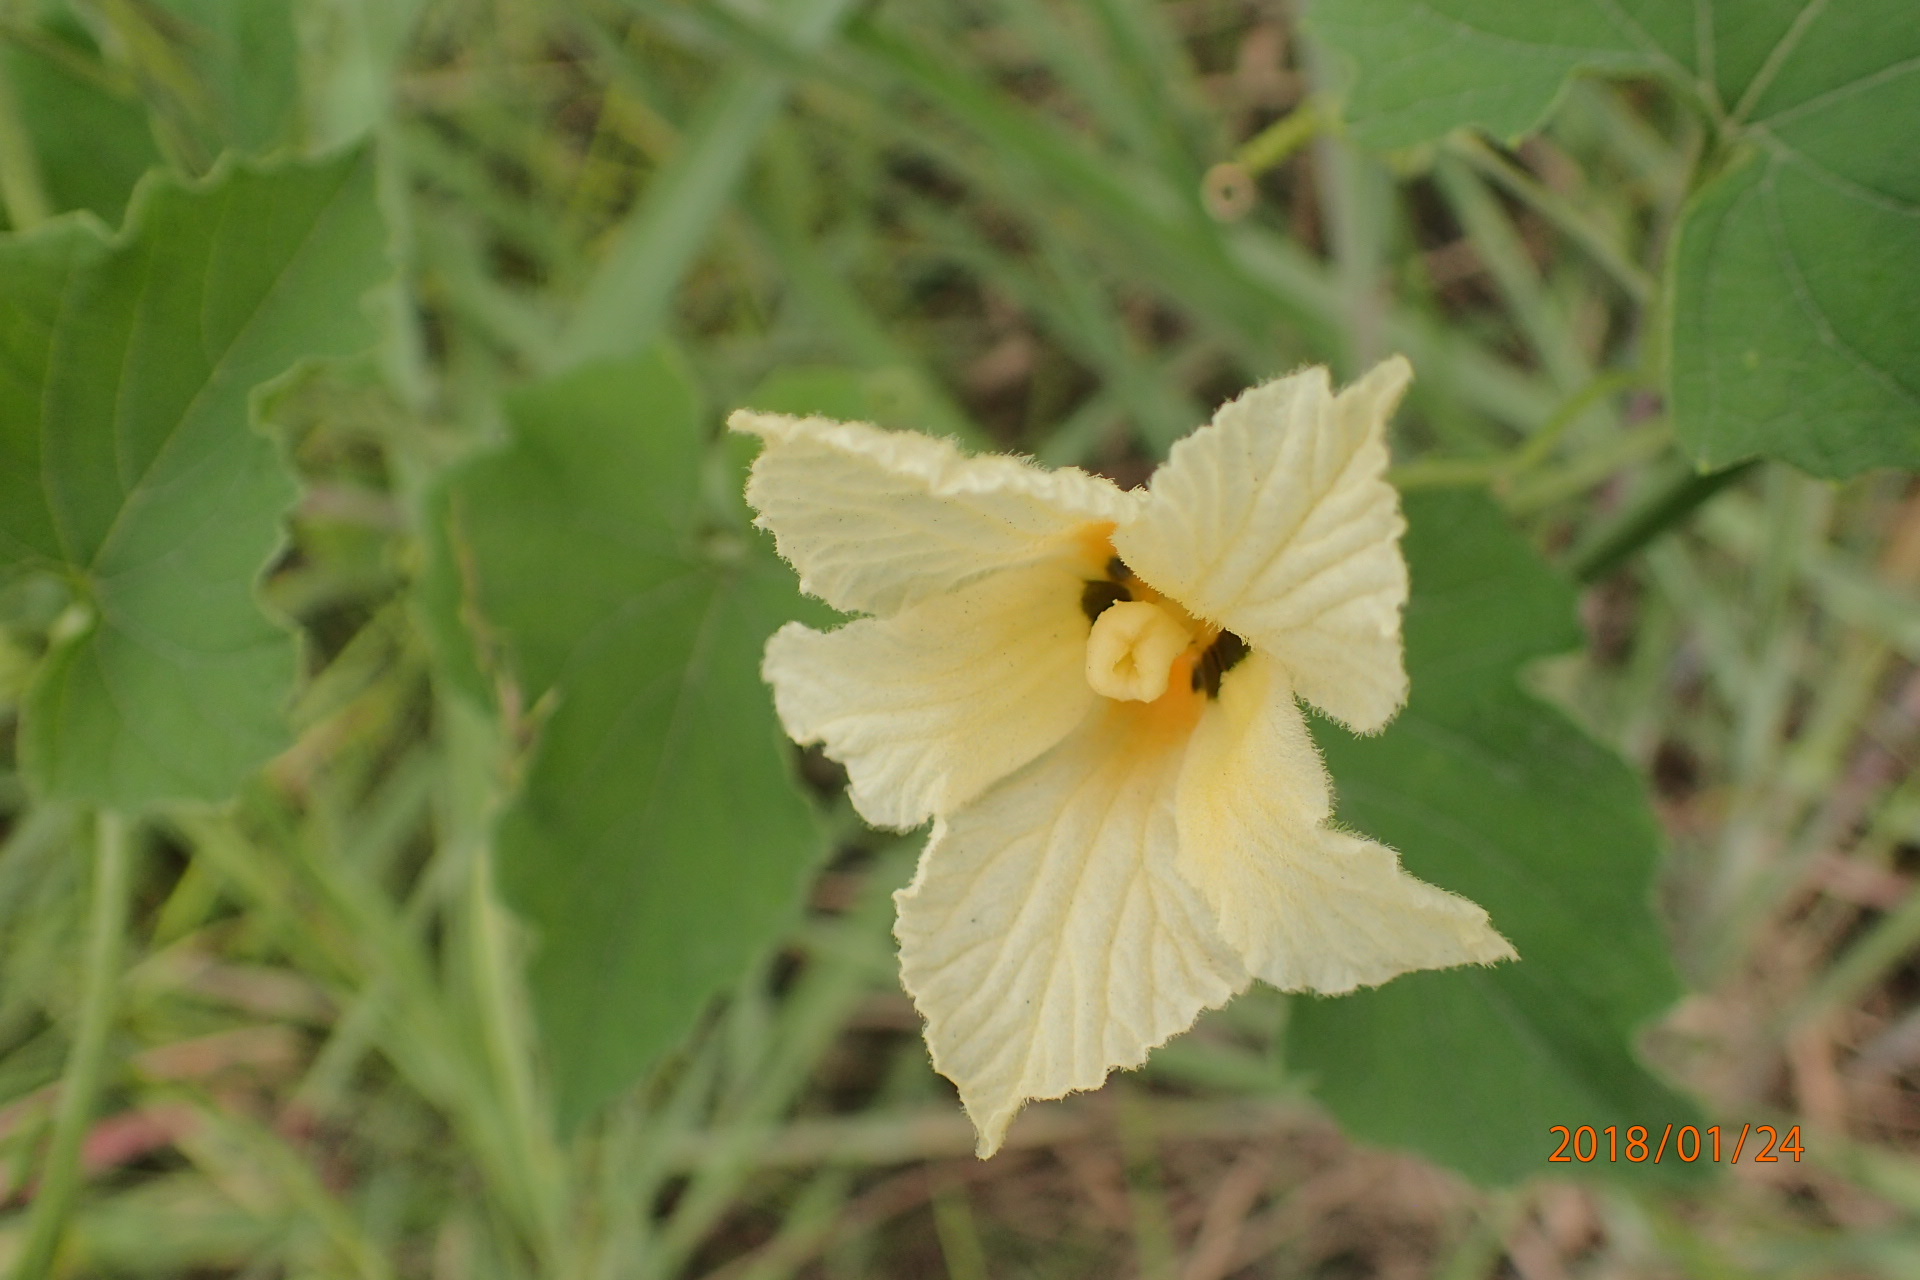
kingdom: Plantae
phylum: Tracheophyta
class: Magnoliopsida
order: Cucurbitales
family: Cucurbitaceae
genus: Momordica
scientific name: Momordica foetida
